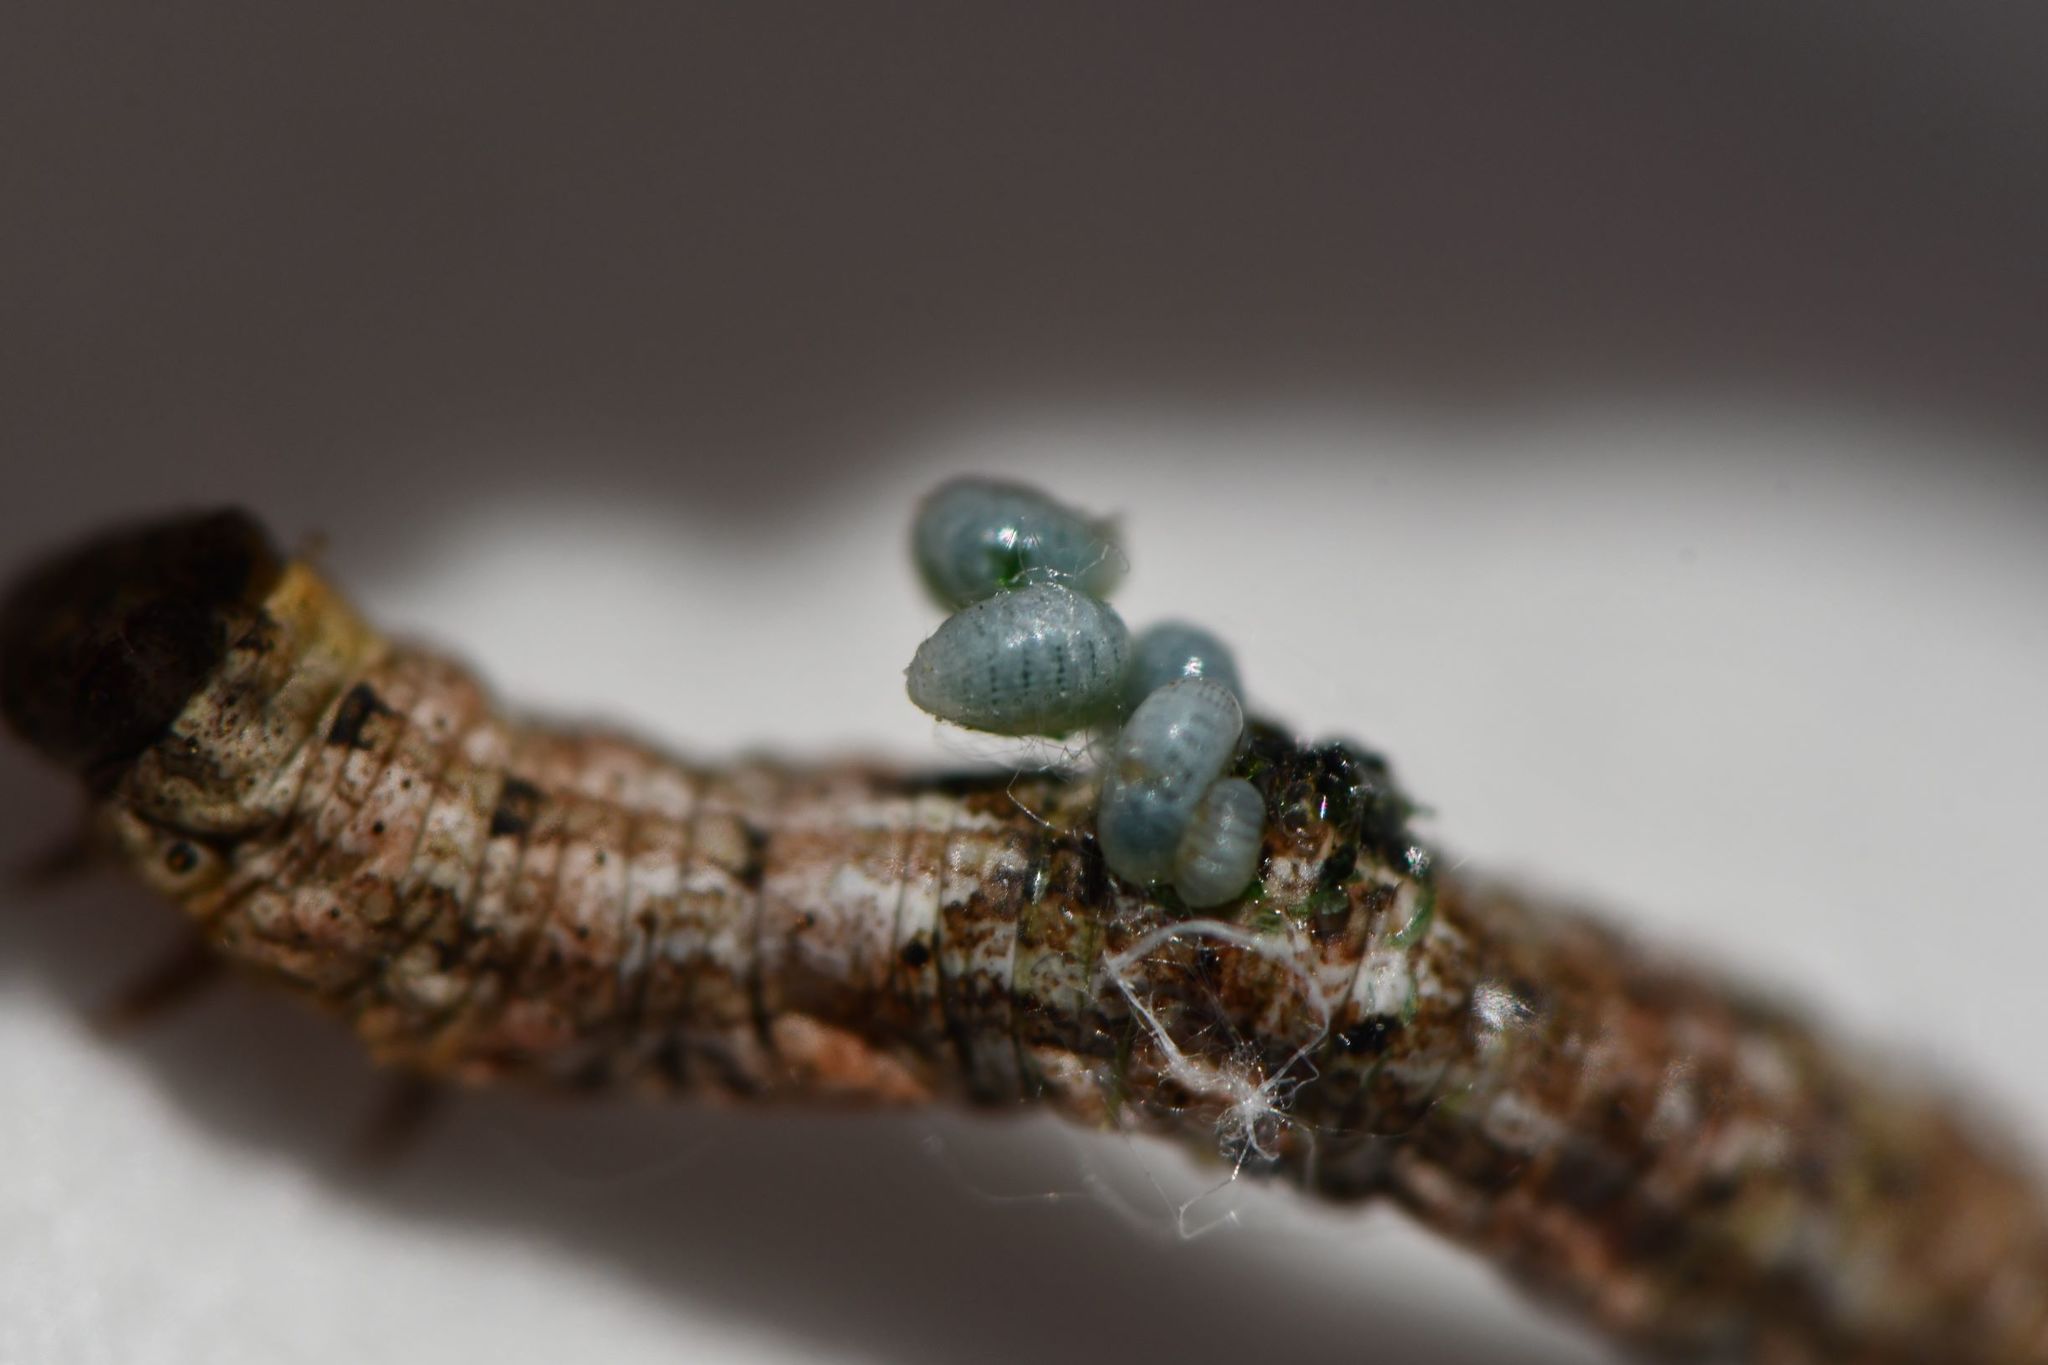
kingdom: Animalia
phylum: Arthropoda
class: Insecta
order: Hymenoptera
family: Eulophidae
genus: Euplectrus
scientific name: Euplectrus
